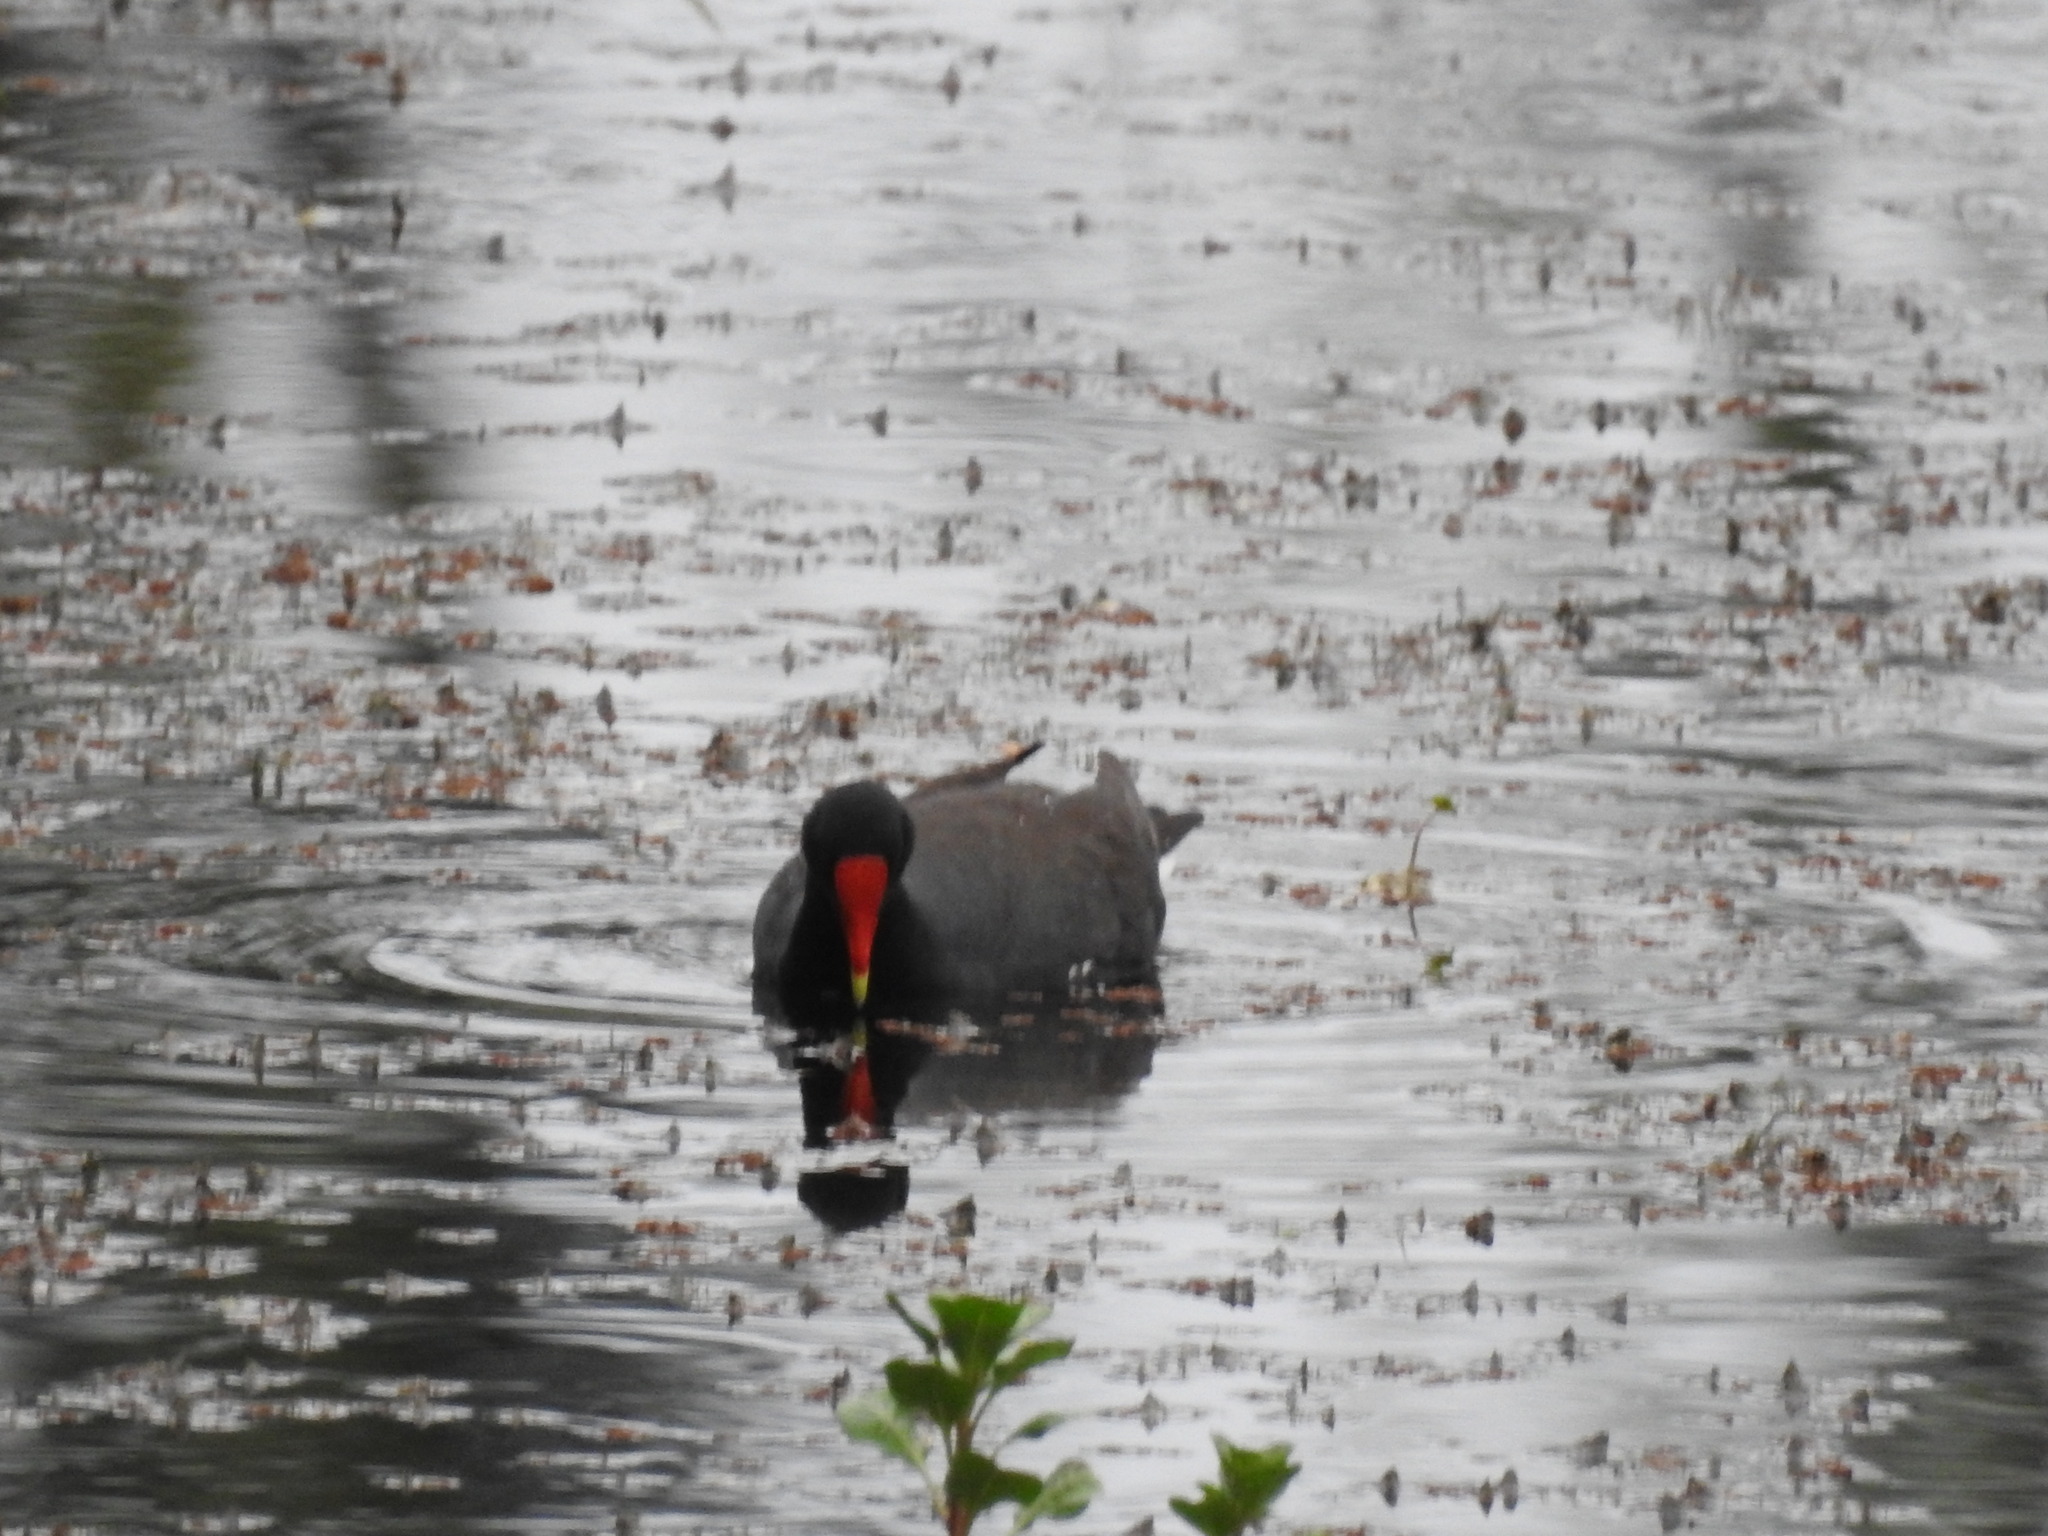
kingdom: Animalia
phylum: Chordata
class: Aves
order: Gruiformes
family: Rallidae
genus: Gallinula
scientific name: Gallinula chloropus
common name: Common moorhen
